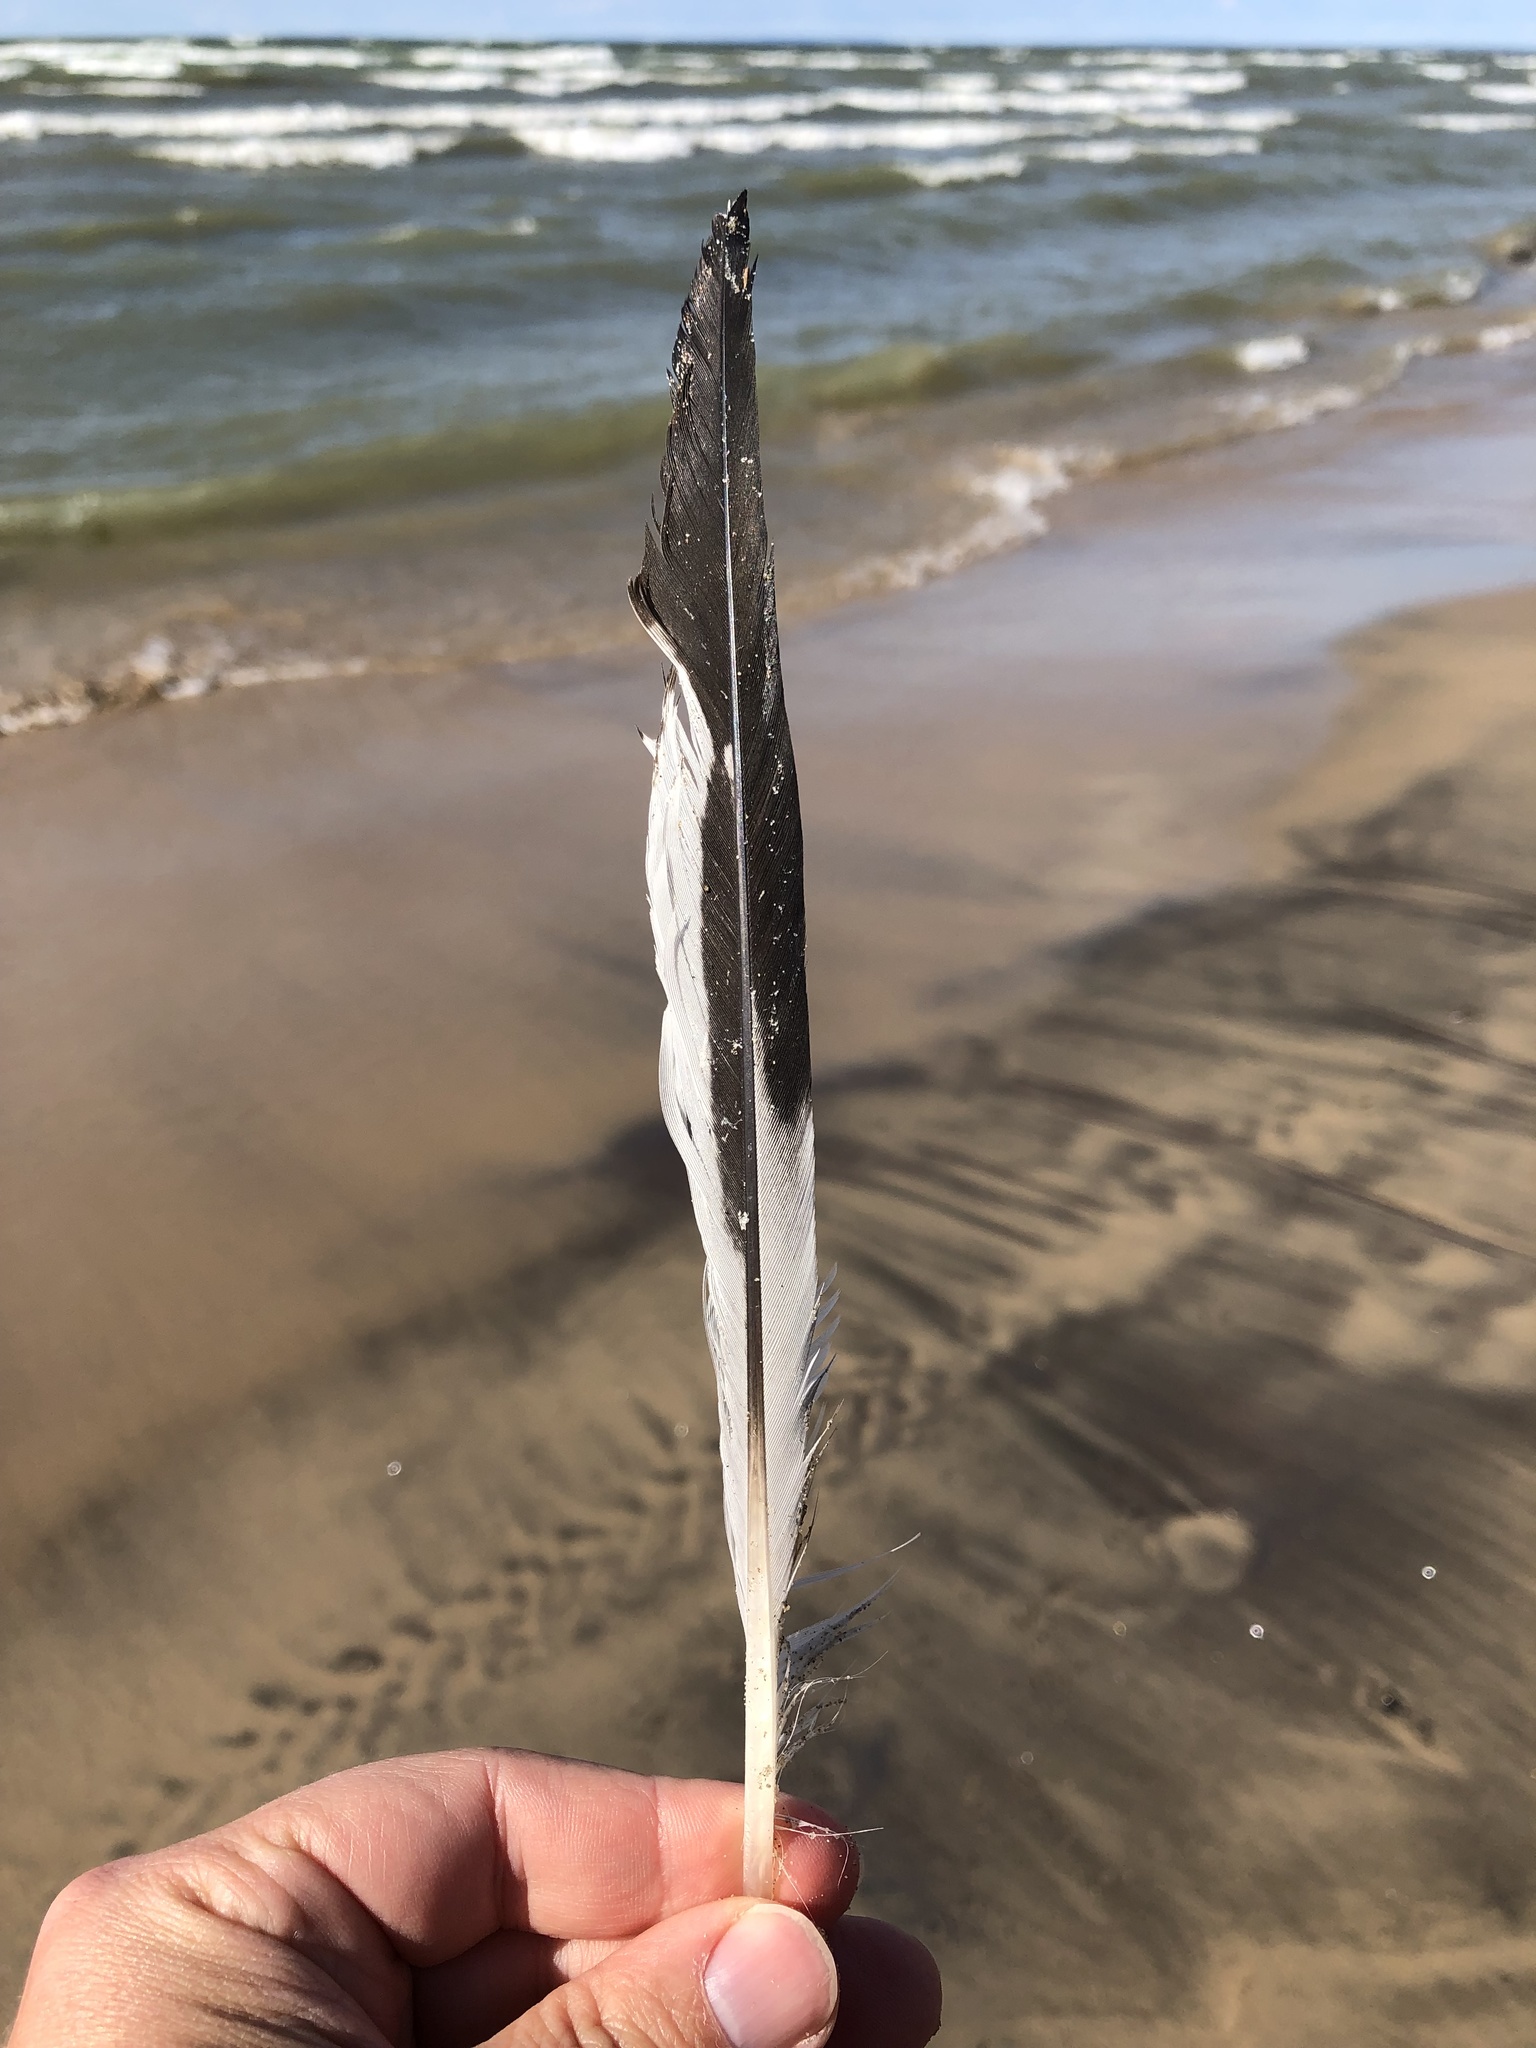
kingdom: Animalia
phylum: Chordata
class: Aves
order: Charadriiformes
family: Laridae
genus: Larus
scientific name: Larus delawarensis
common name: Ring-billed gull
